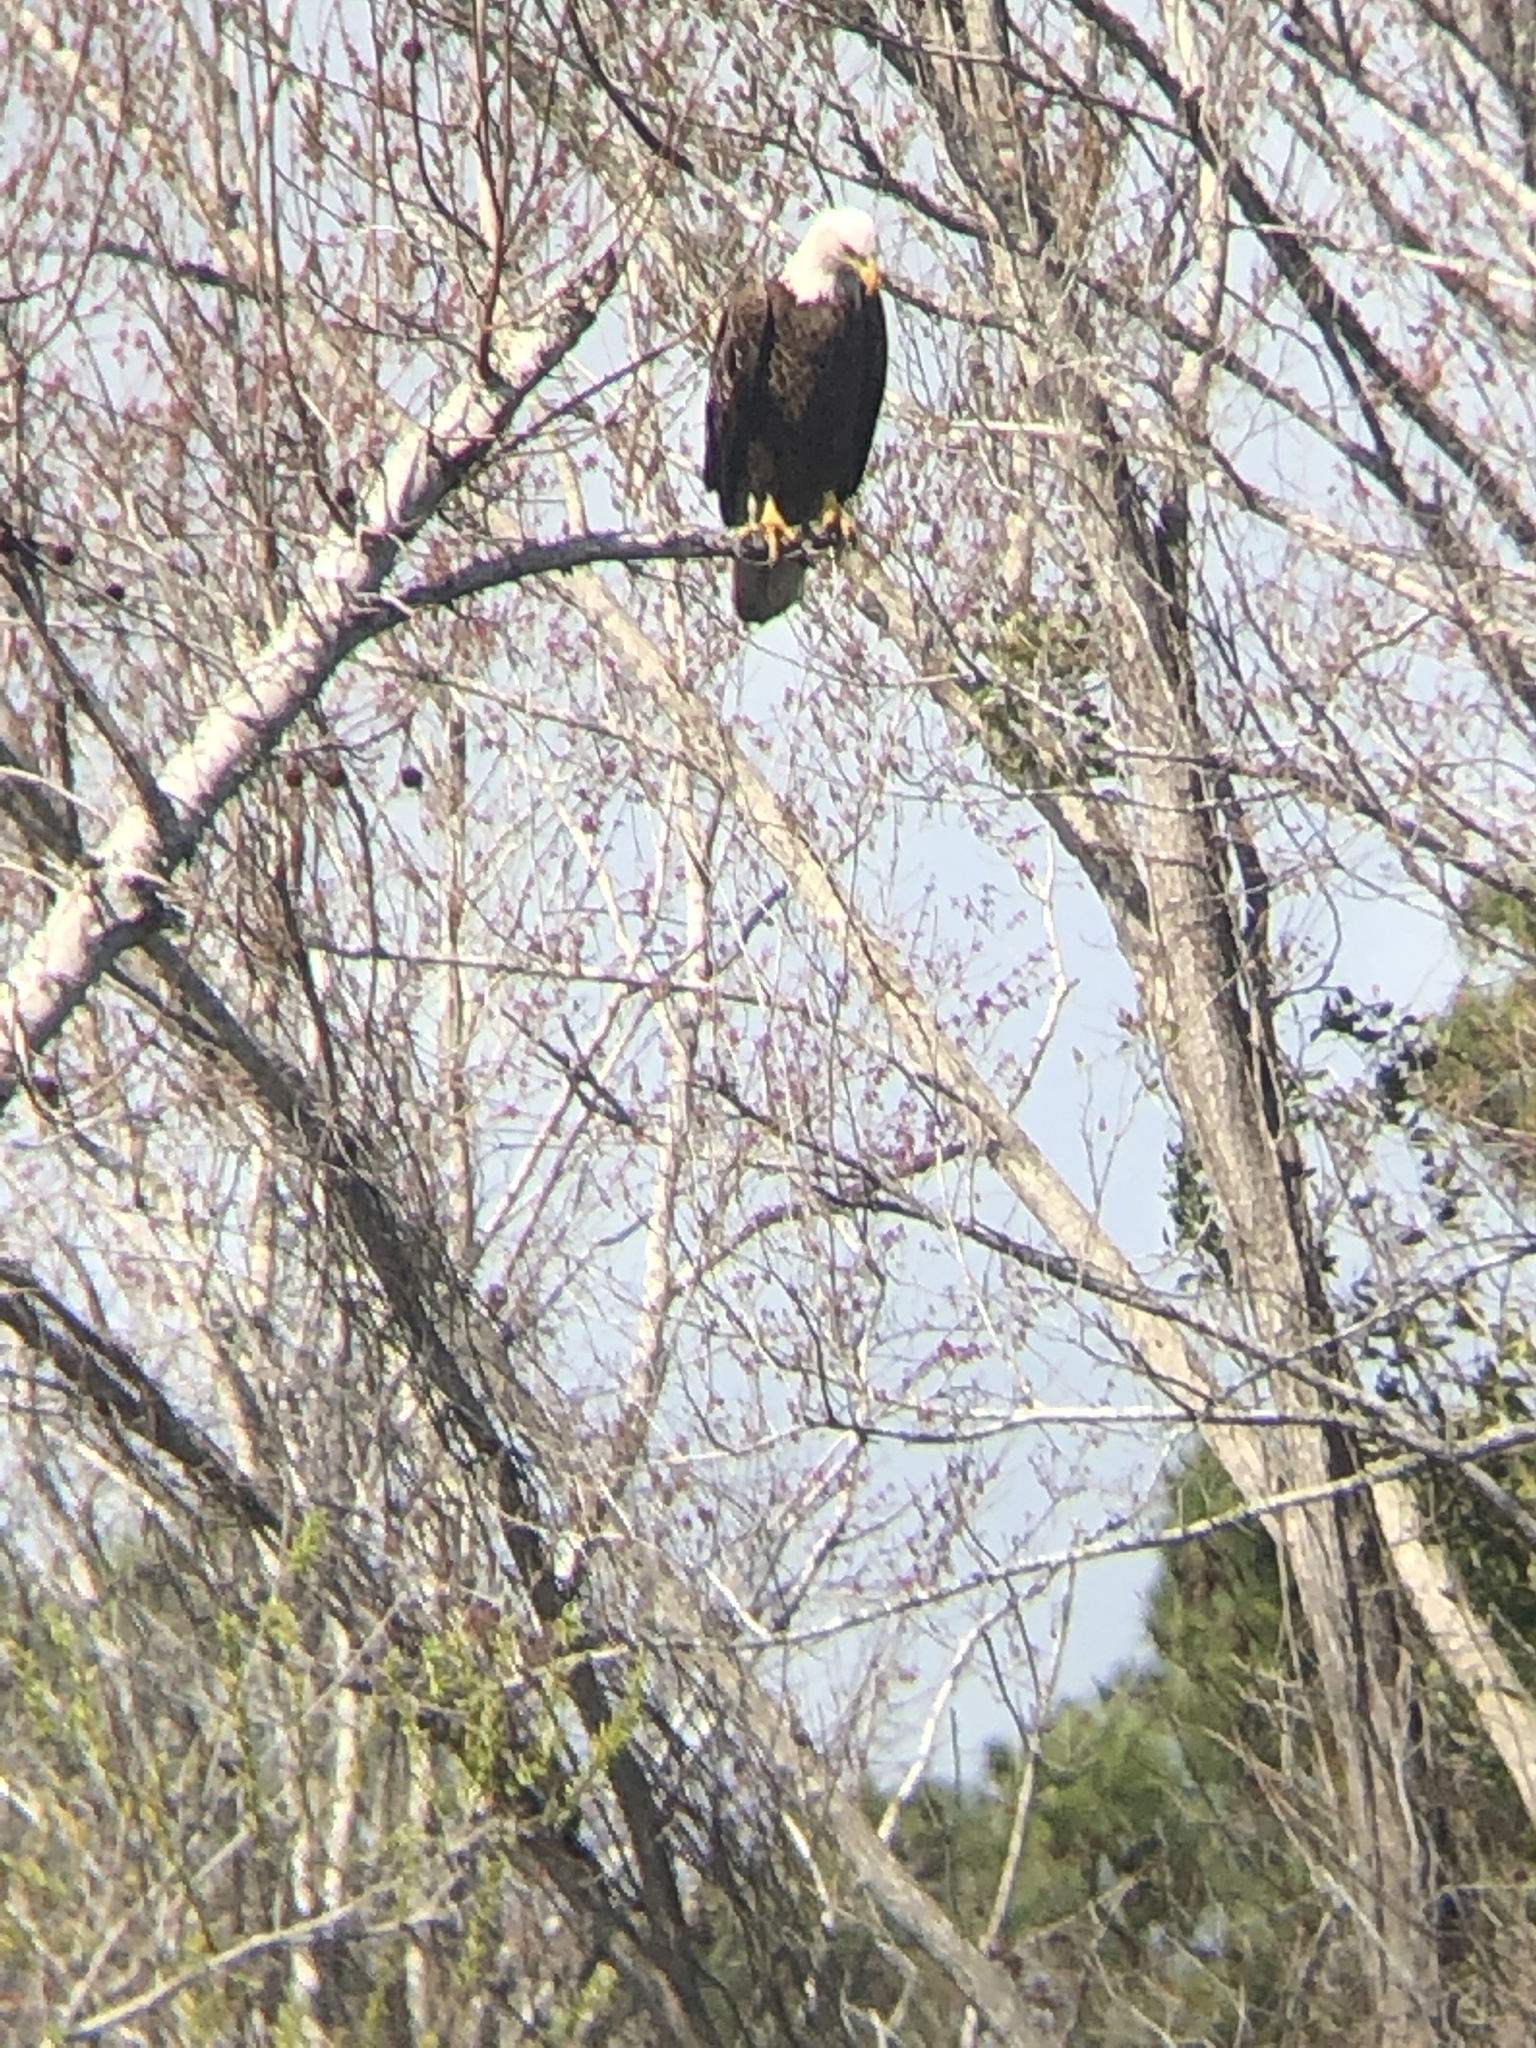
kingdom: Animalia
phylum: Chordata
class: Aves
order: Accipitriformes
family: Accipitridae
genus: Haliaeetus
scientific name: Haliaeetus leucocephalus
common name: Bald eagle
